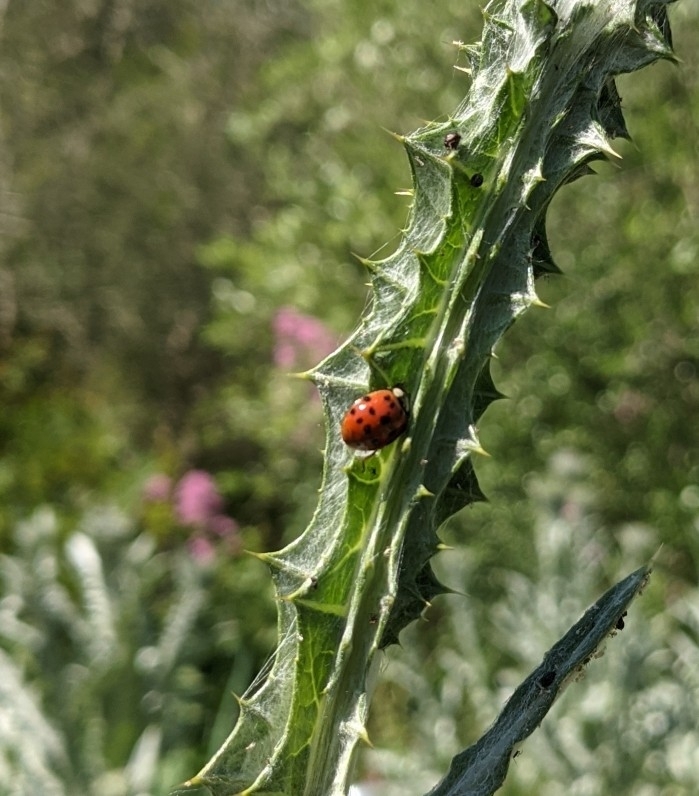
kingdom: Animalia
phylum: Arthropoda
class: Insecta
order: Coleoptera
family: Coccinellidae
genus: Harmonia
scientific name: Harmonia axyridis
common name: Harlequin ladybird
